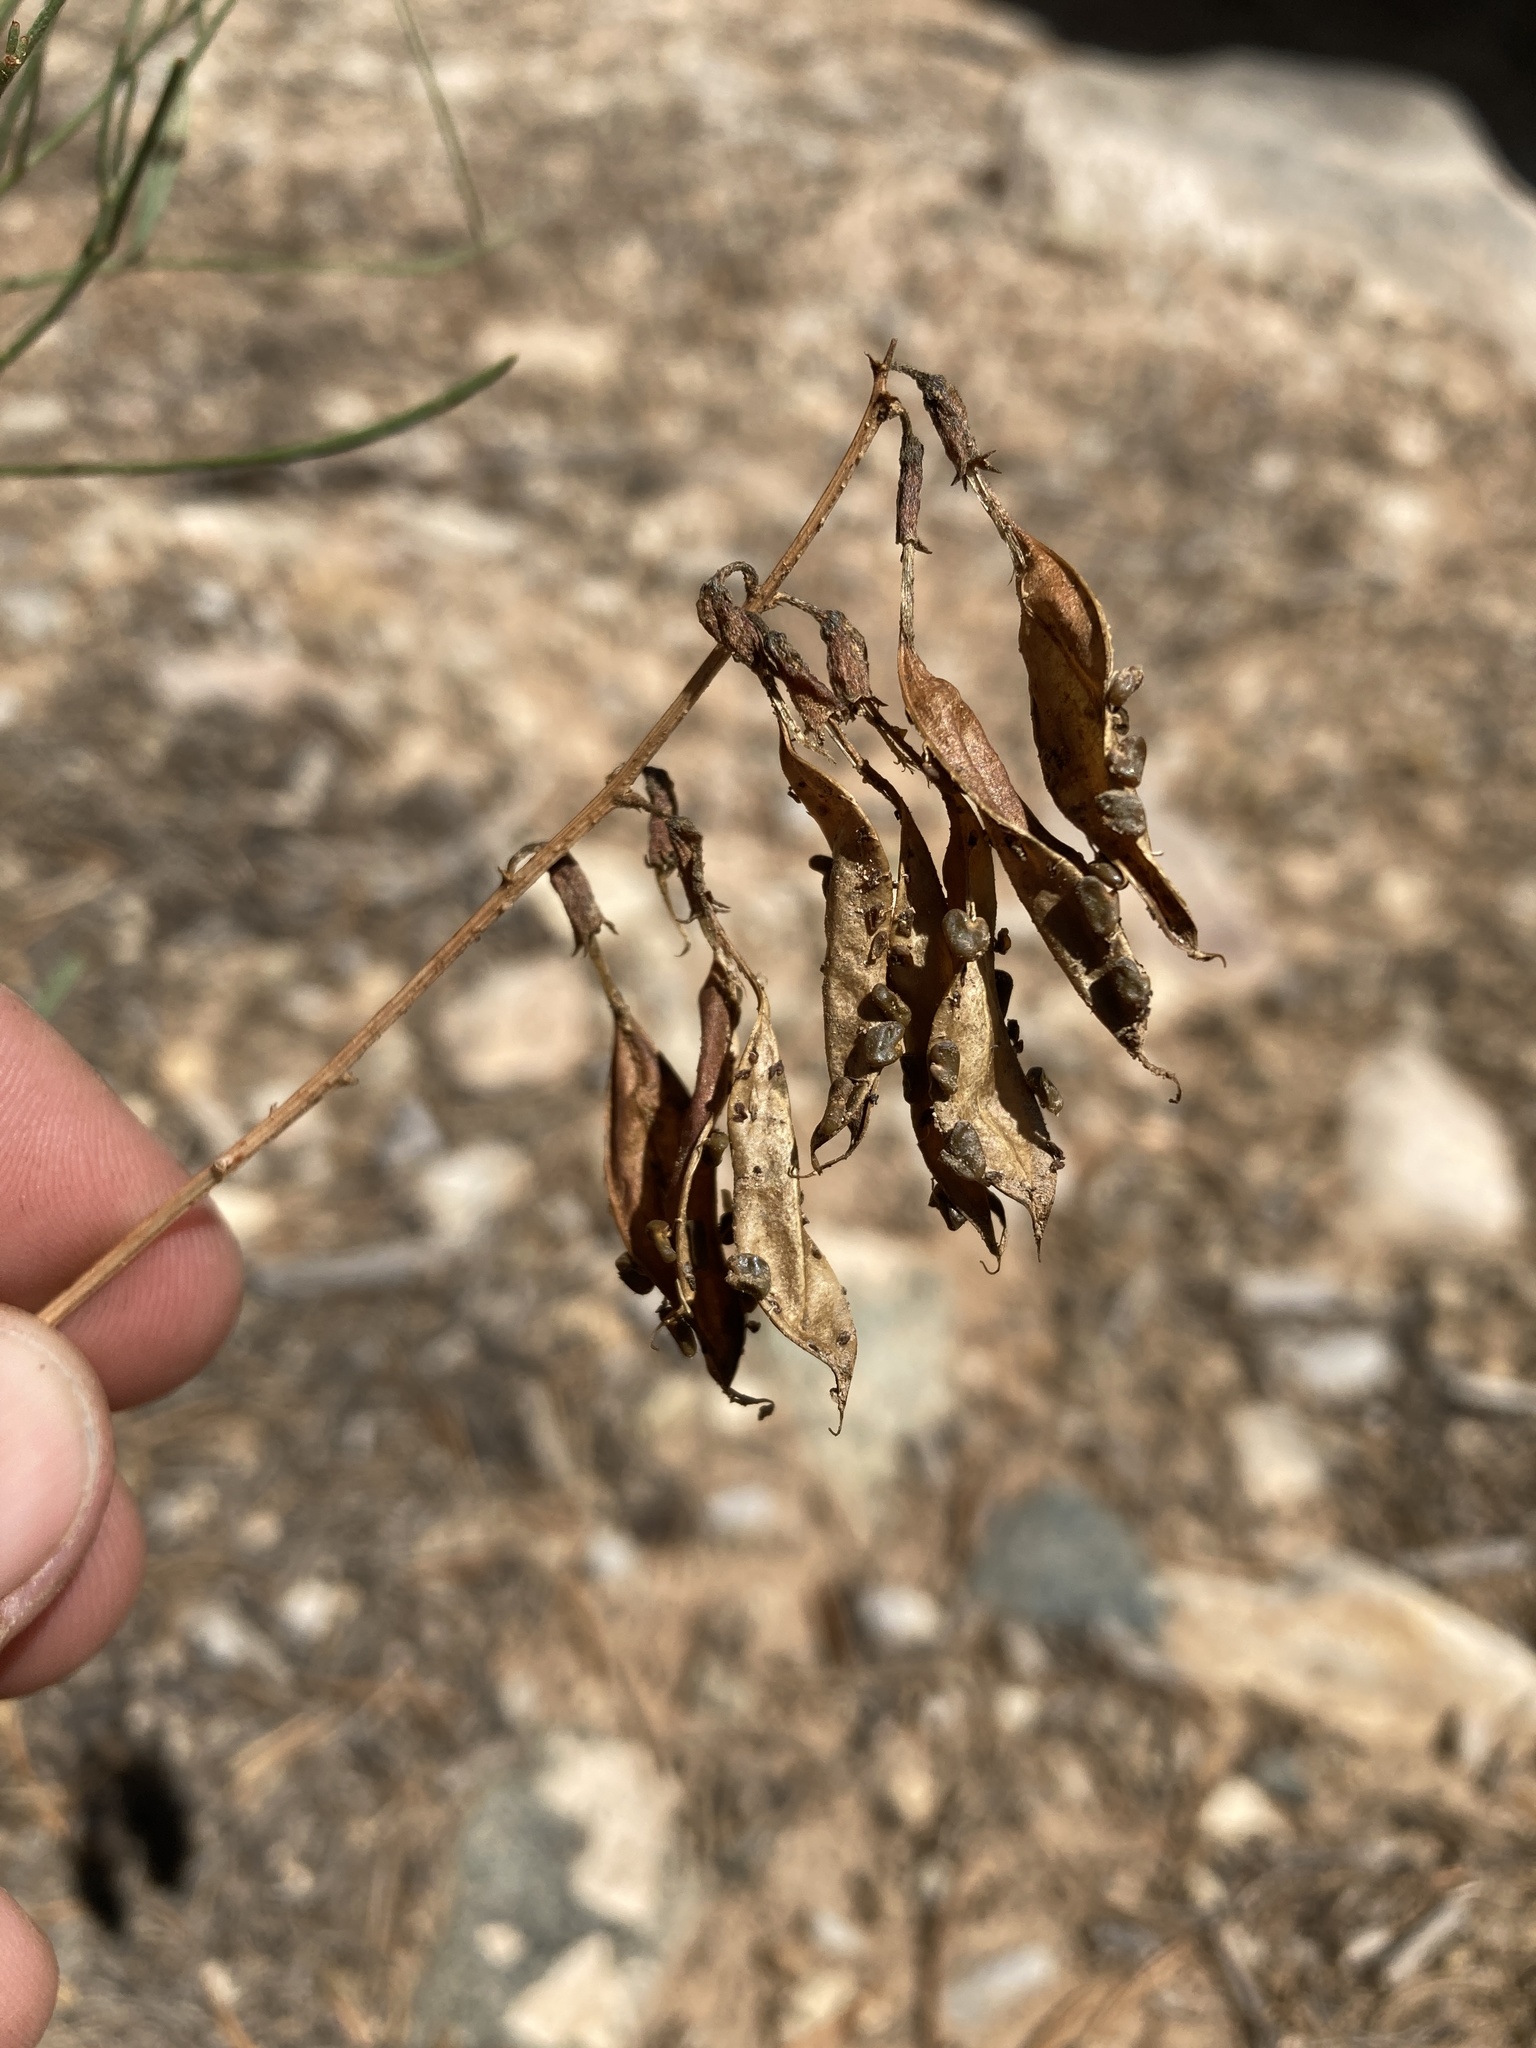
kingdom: Plantae
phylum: Tracheophyta
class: Magnoliopsida
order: Fabales
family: Fabaceae
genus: Astragalus
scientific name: Astragalus lonchocarpus
